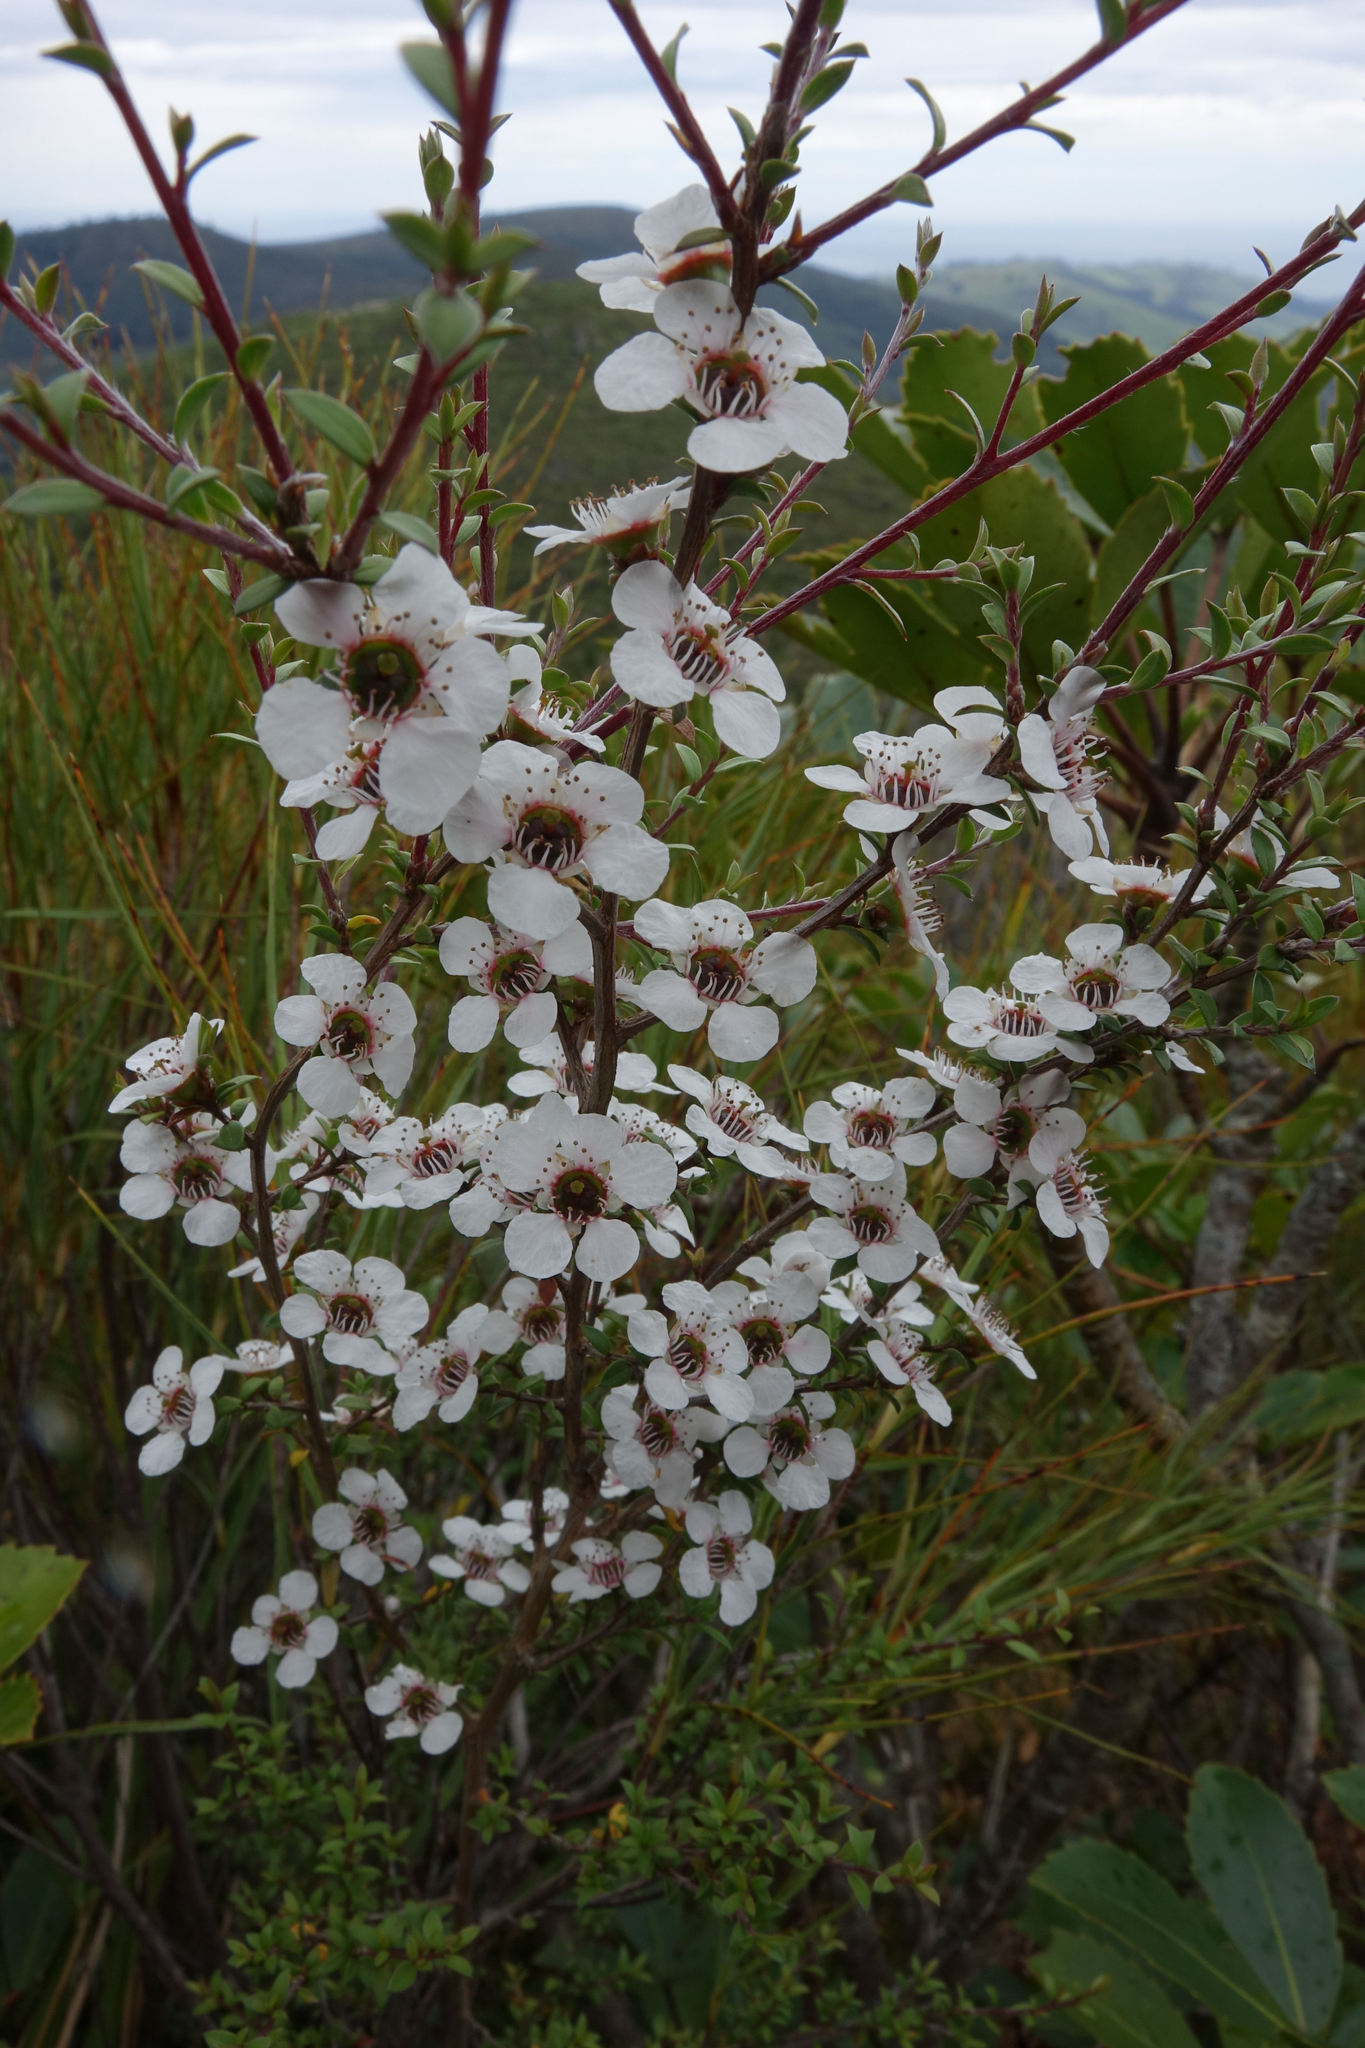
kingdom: Plantae
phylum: Tracheophyta
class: Magnoliopsida
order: Myrtales
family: Myrtaceae
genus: Leptospermum
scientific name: Leptospermum scoparium
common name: Broom tea-tree
